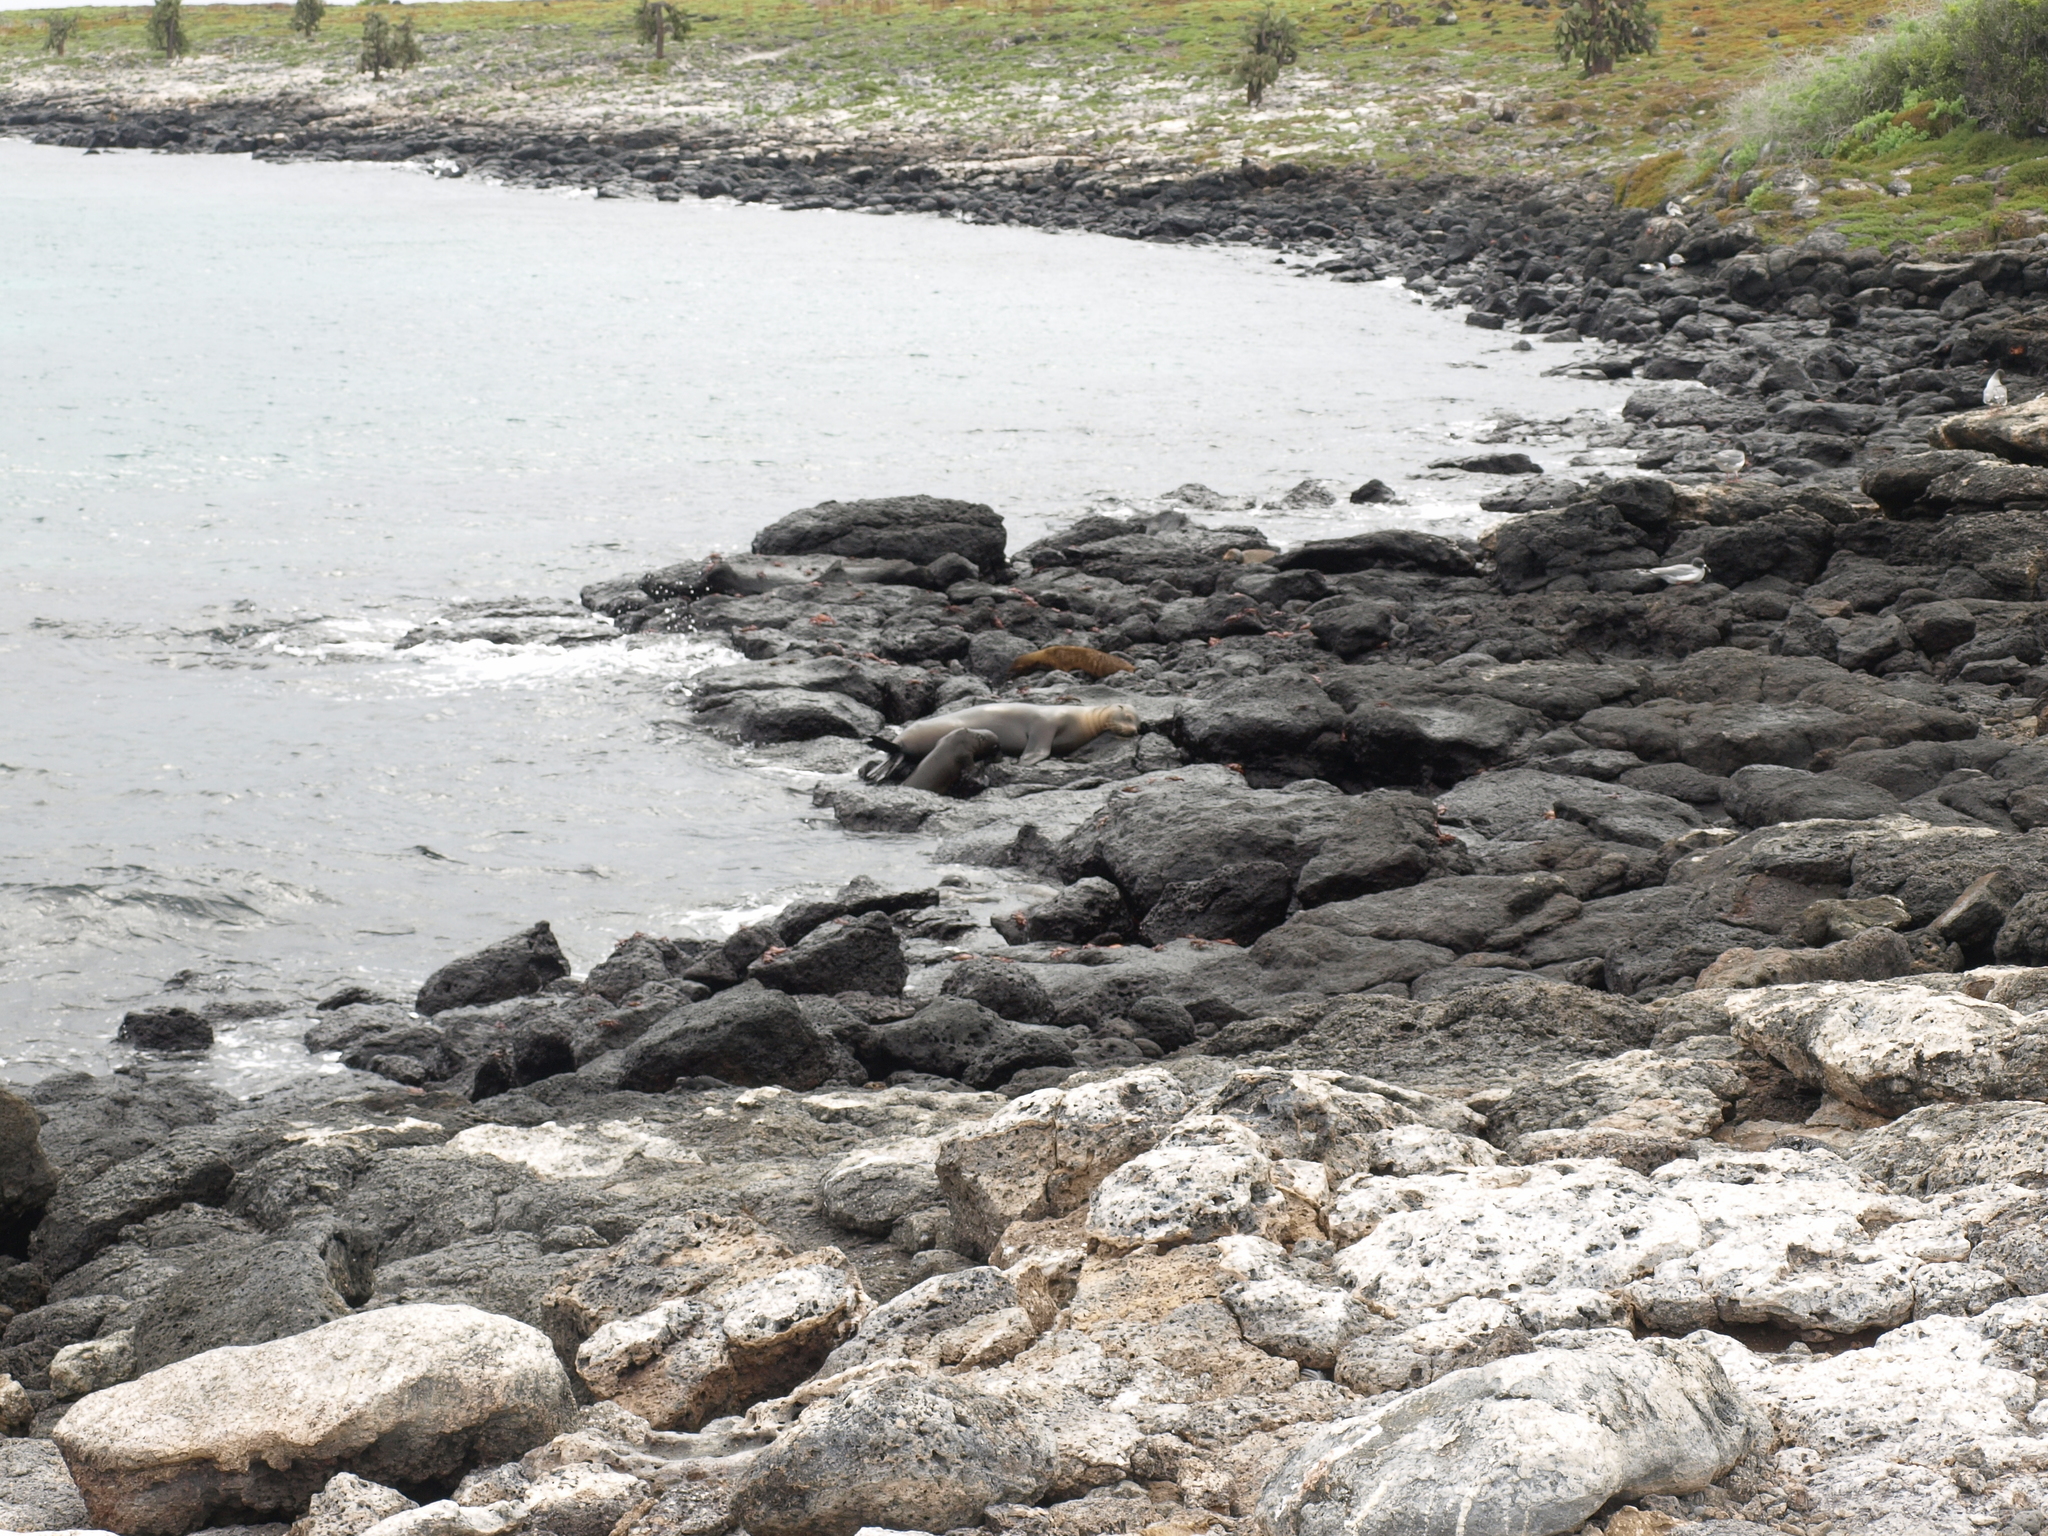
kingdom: Animalia
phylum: Chordata
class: Mammalia
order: Carnivora
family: Otariidae
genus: Zalophus
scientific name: Zalophus wollebaeki
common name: Galapagos sea lion
